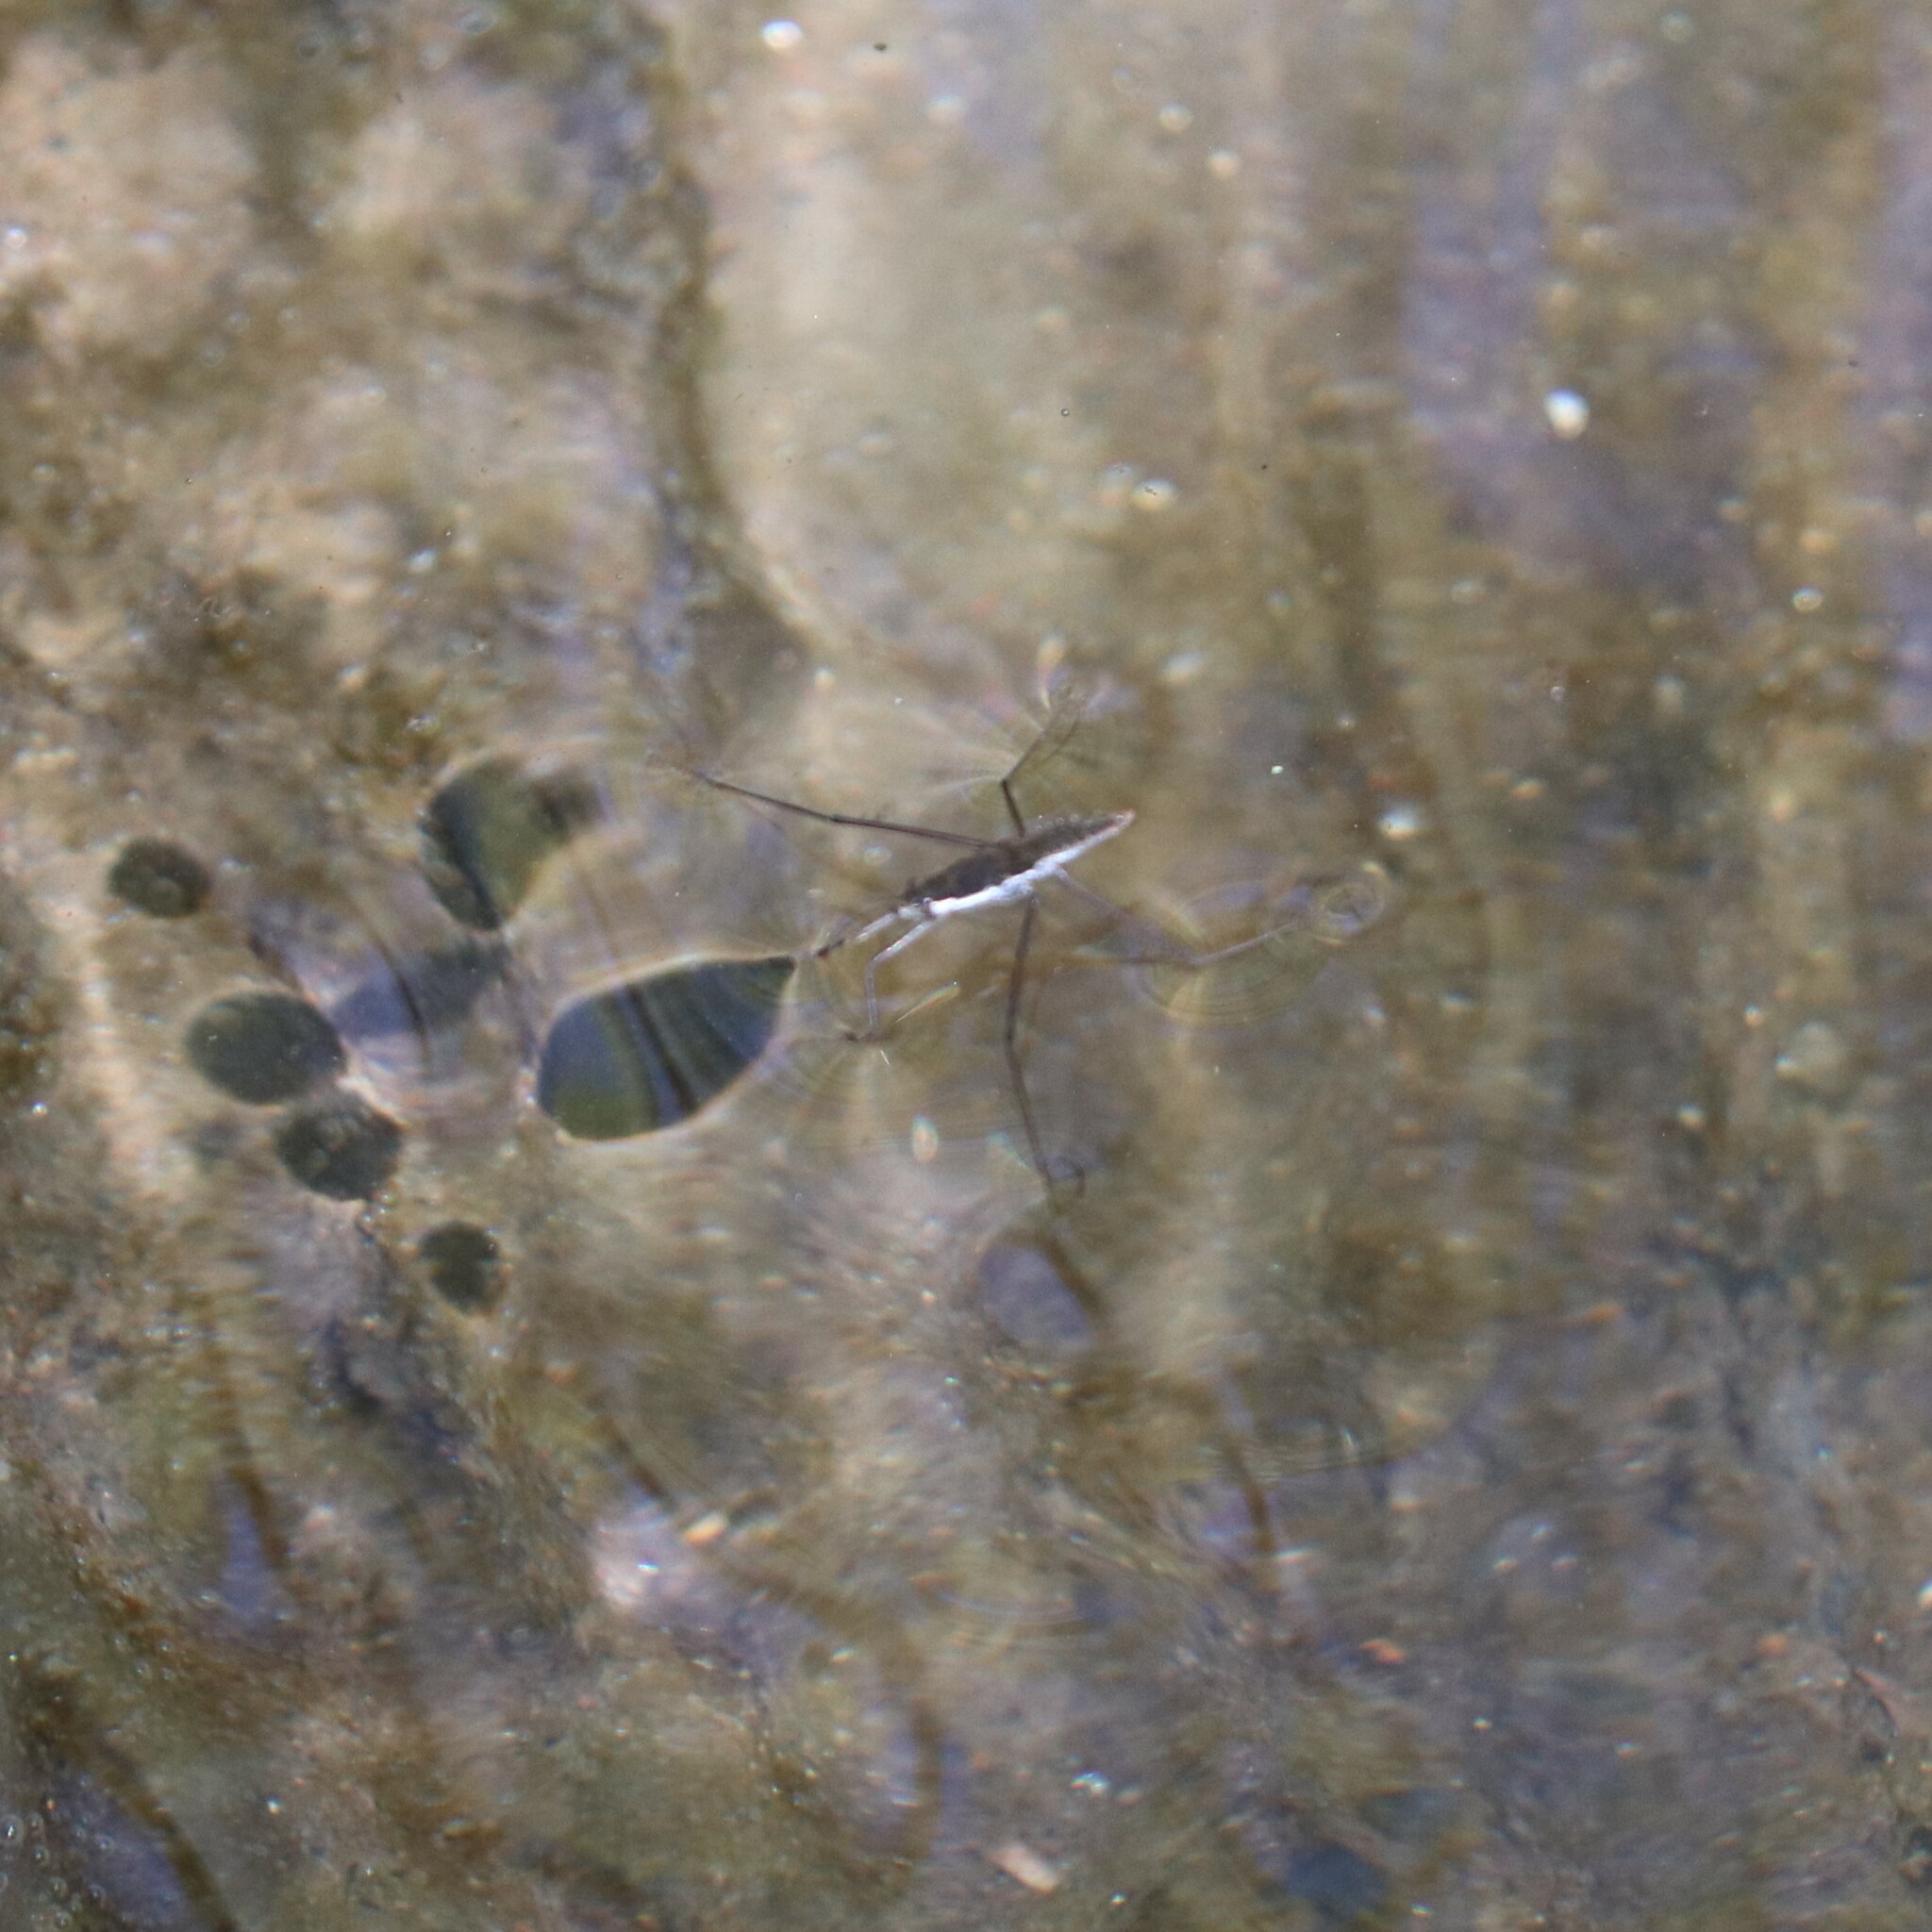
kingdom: Animalia
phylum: Arthropoda
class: Insecta
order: Hemiptera
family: Gerridae
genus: Aquarius
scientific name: Aquarius remigis
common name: Common water strider
